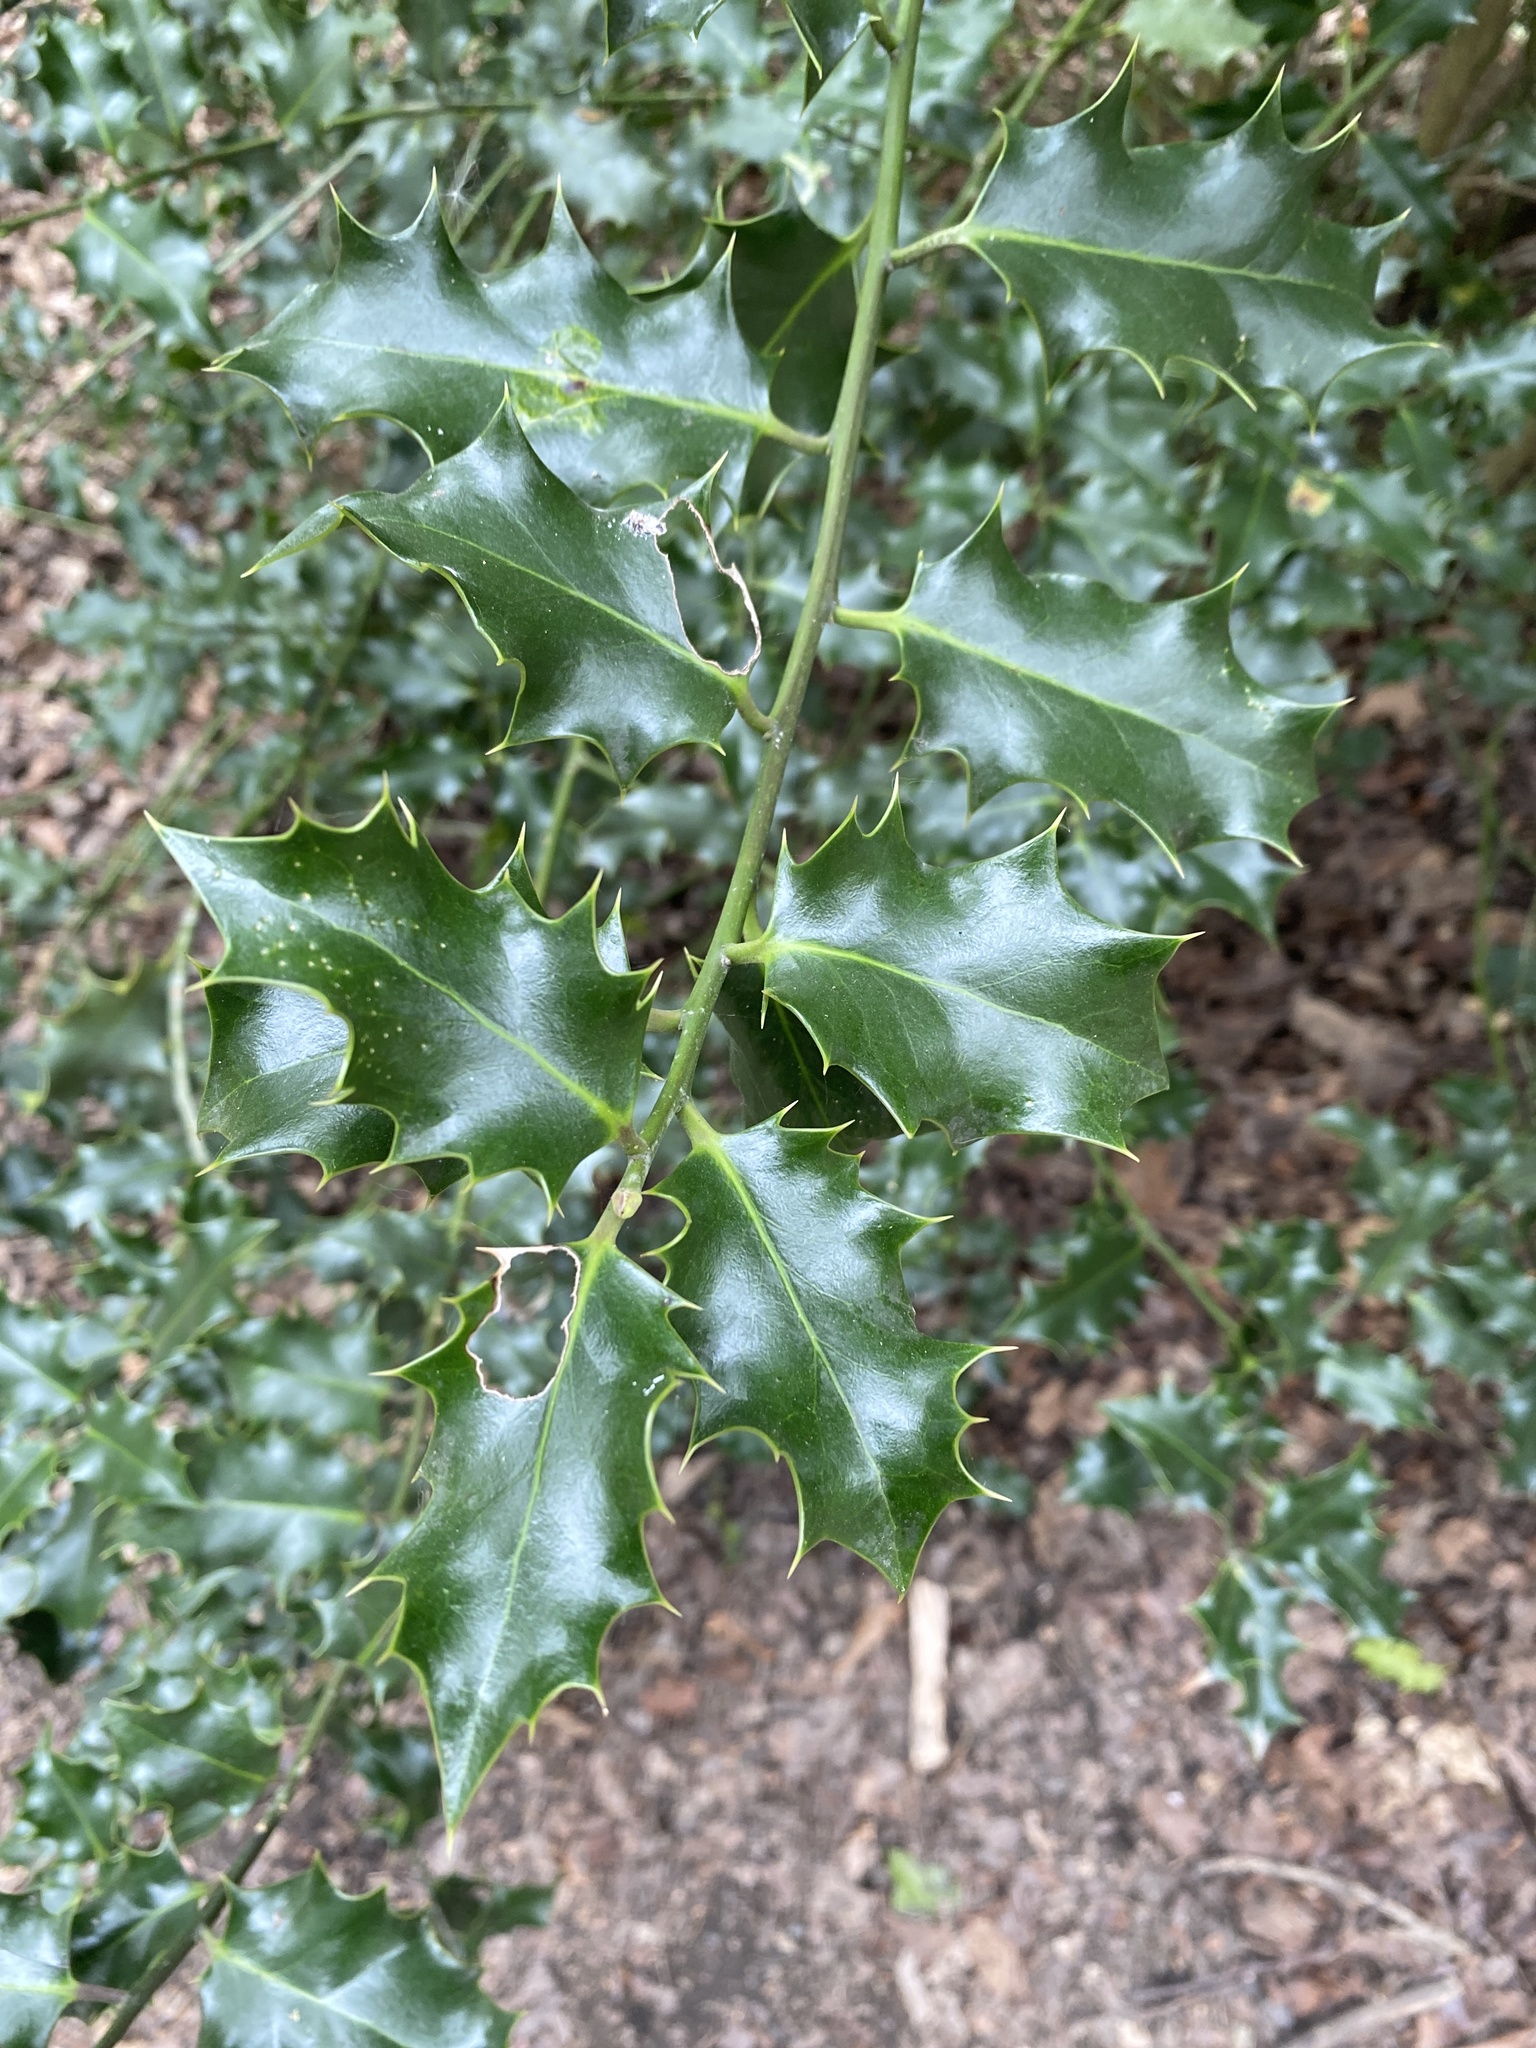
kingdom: Plantae
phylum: Tracheophyta
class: Magnoliopsida
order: Aquifoliales
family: Aquifoliaceae
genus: Ilex
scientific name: Ilex aquifolium
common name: English holly
